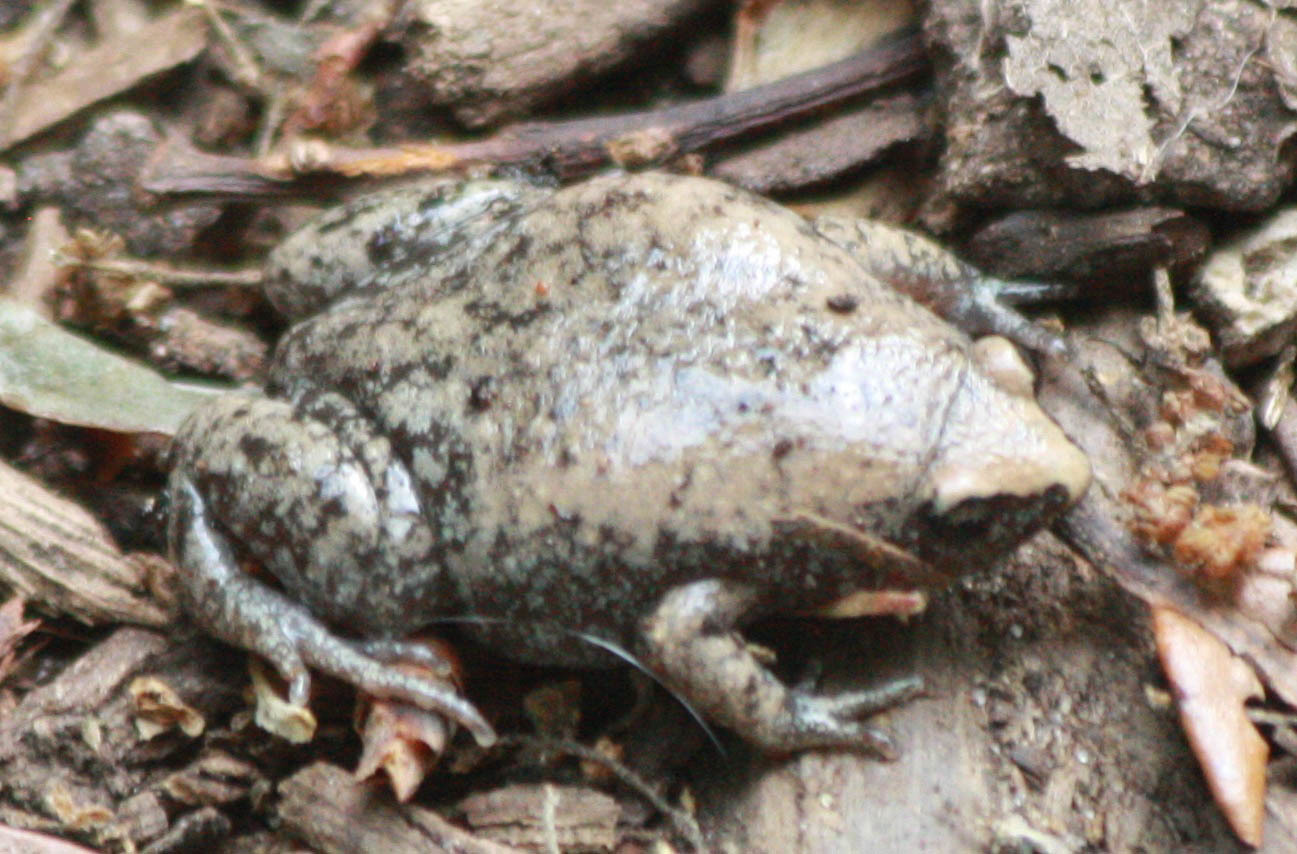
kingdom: Animalia
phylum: Chordata
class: Amphibia
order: Anura
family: Microhylidae
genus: Gastrophryne
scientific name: Gastrophryne carolinensis
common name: Eastern narrowmouth toad
